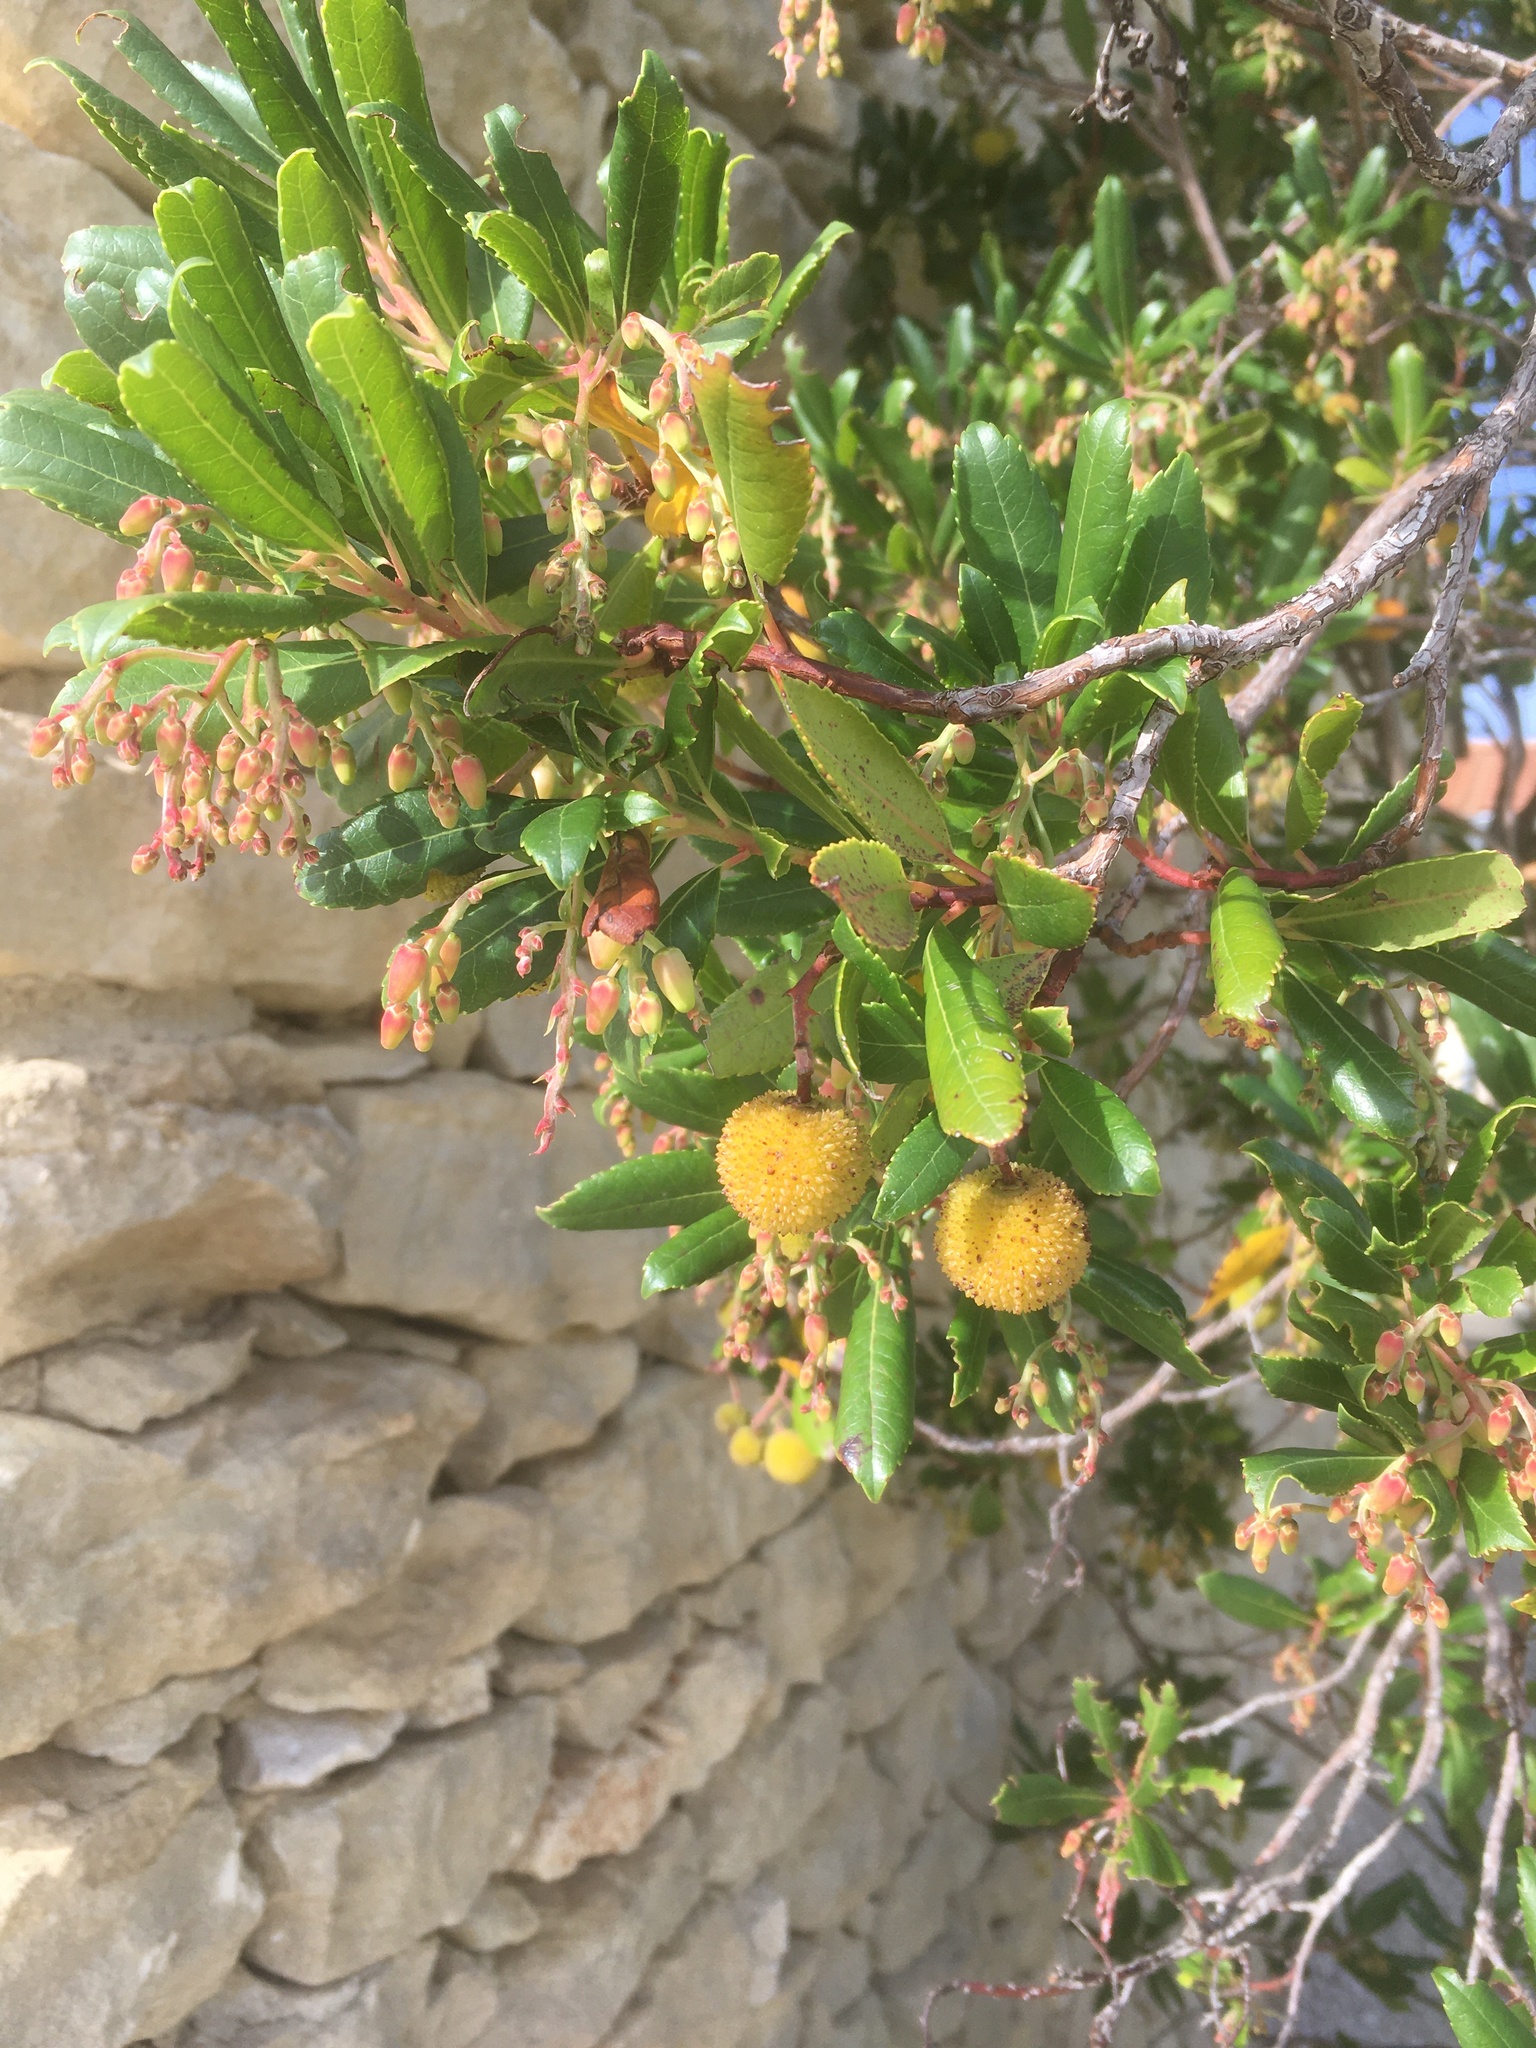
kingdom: Plantae
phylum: Tracheophyta
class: Magnoliopsida
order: Ericales
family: Ericaceae
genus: Arbutus
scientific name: Arbutus unedo
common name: Strawberry-tree
